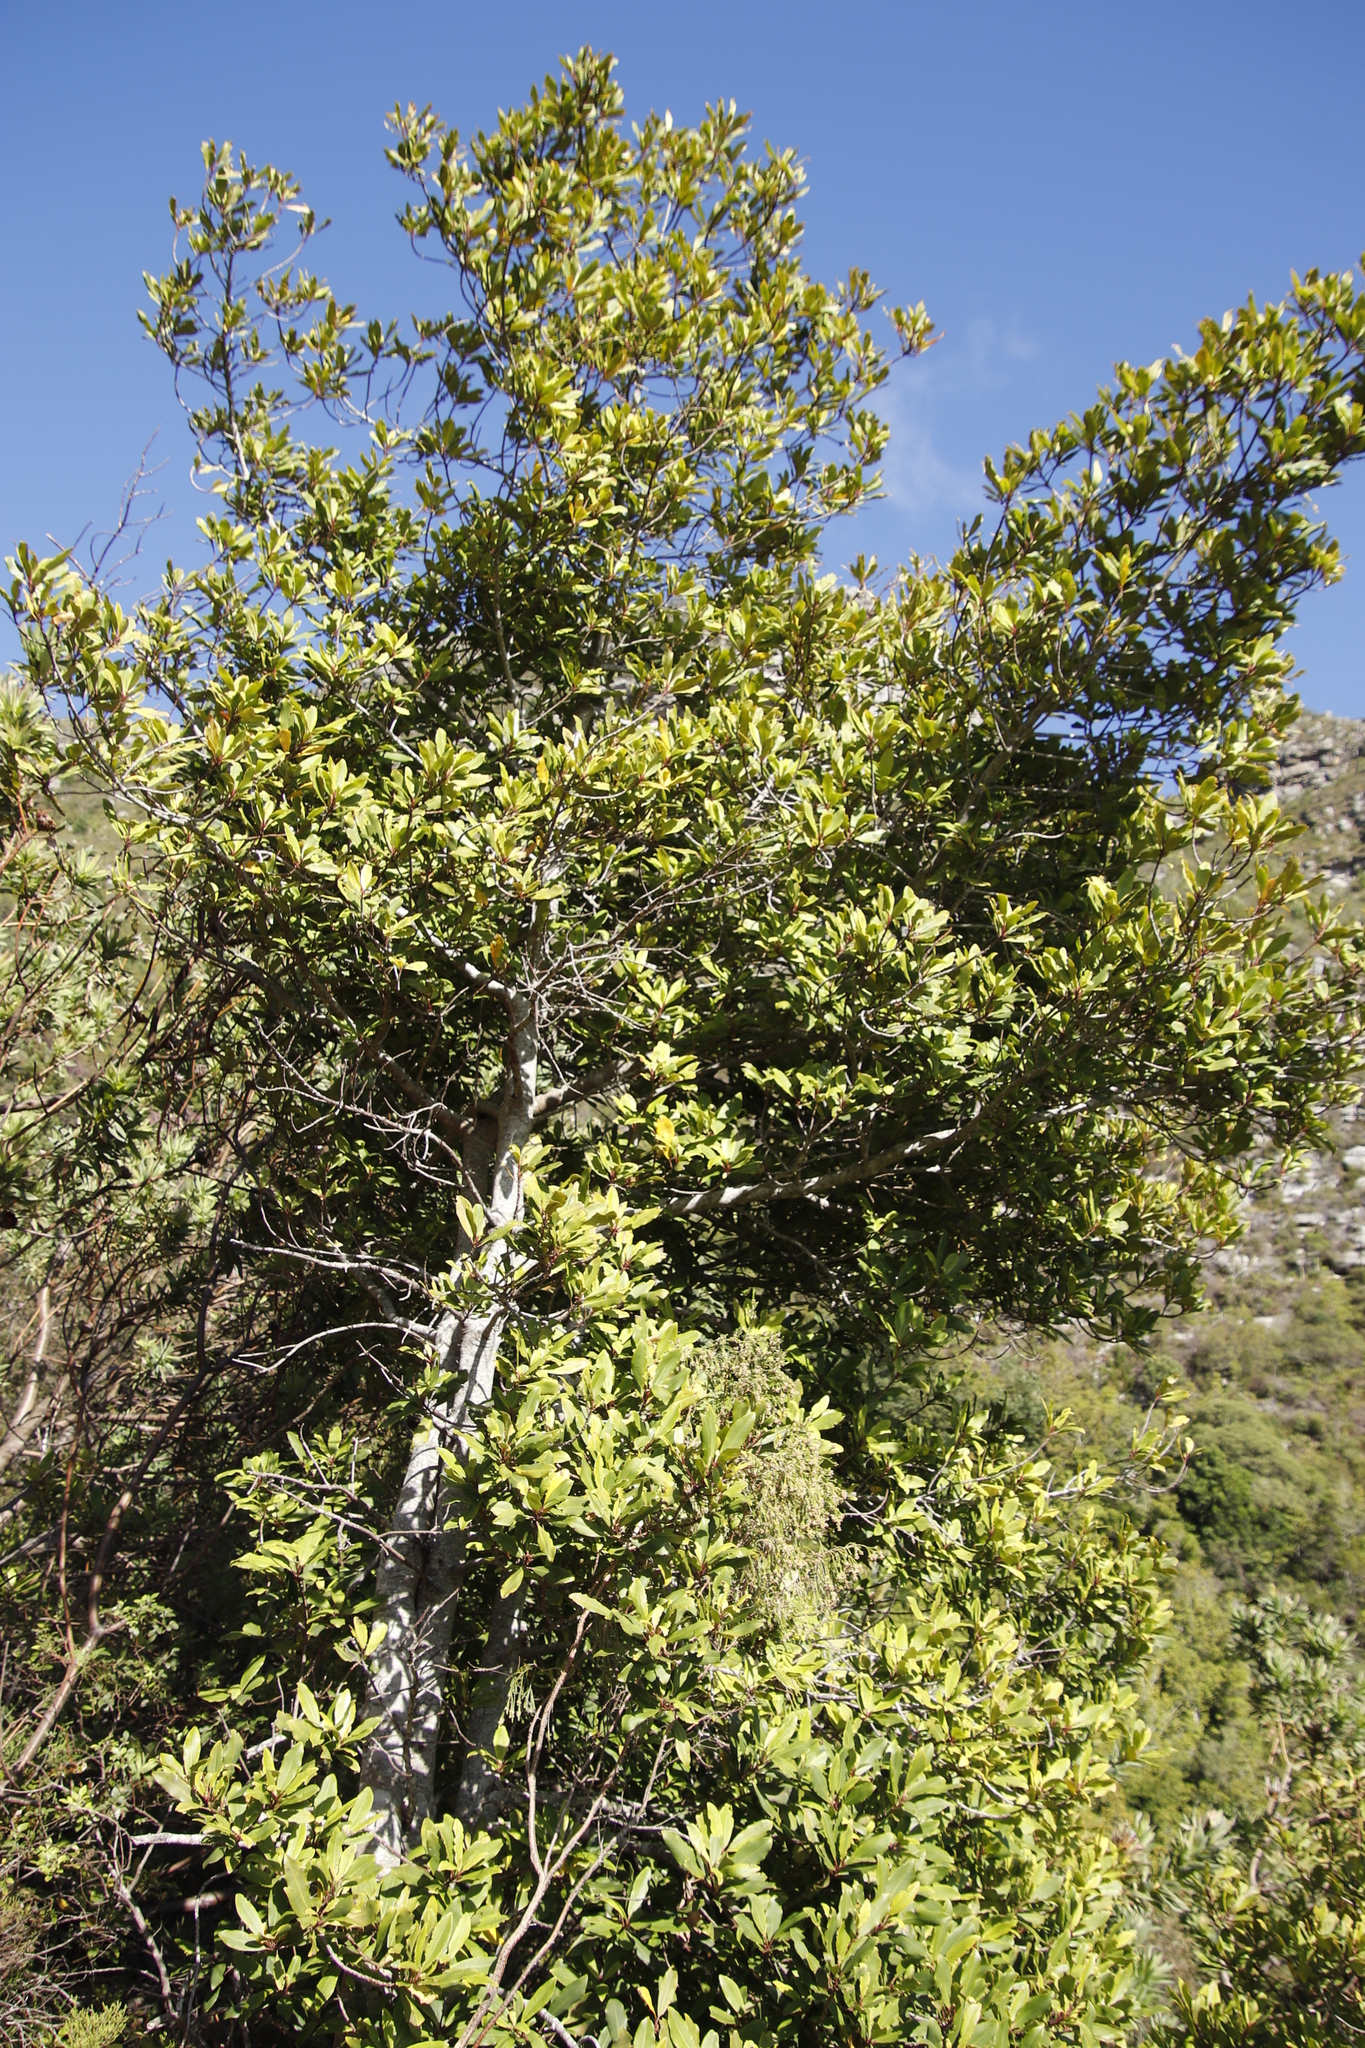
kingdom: Plantae
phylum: Tracheophyta
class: Magnoliopsida
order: Ericales
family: Primulaceae
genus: Myrsine
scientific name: Myrsine melanophloeos
